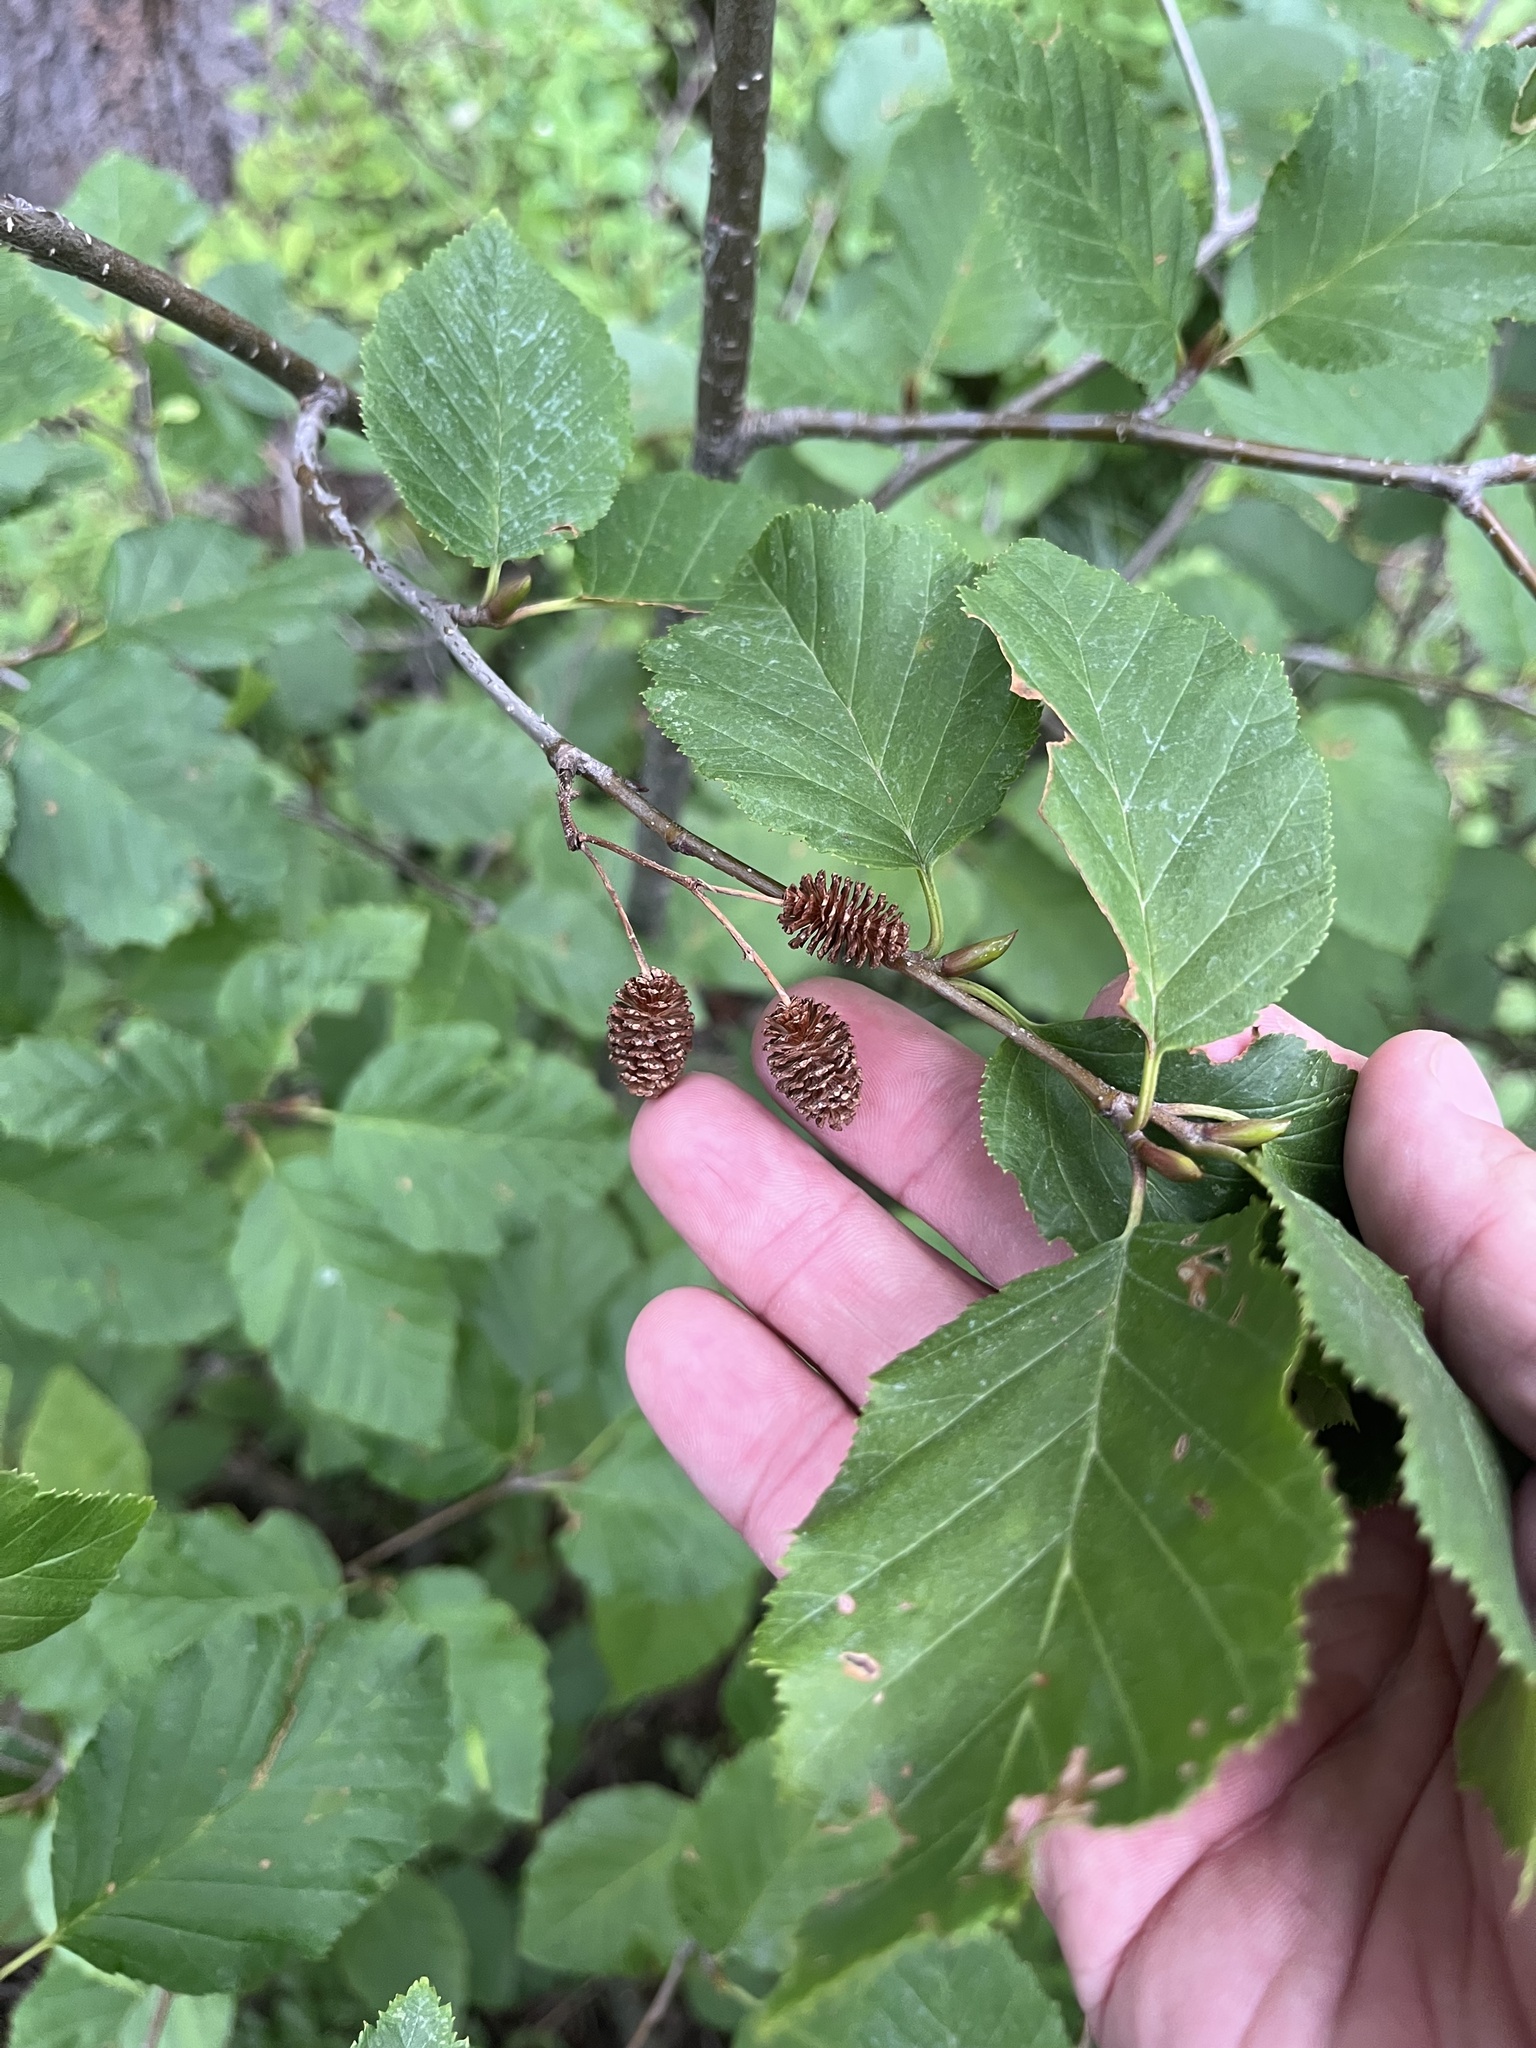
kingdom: Plantae
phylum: Tracheophyta
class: Magnoliopsida
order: Fagales
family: Betulaceae
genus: Alnus
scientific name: Alnus alnobetula
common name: Green alder
